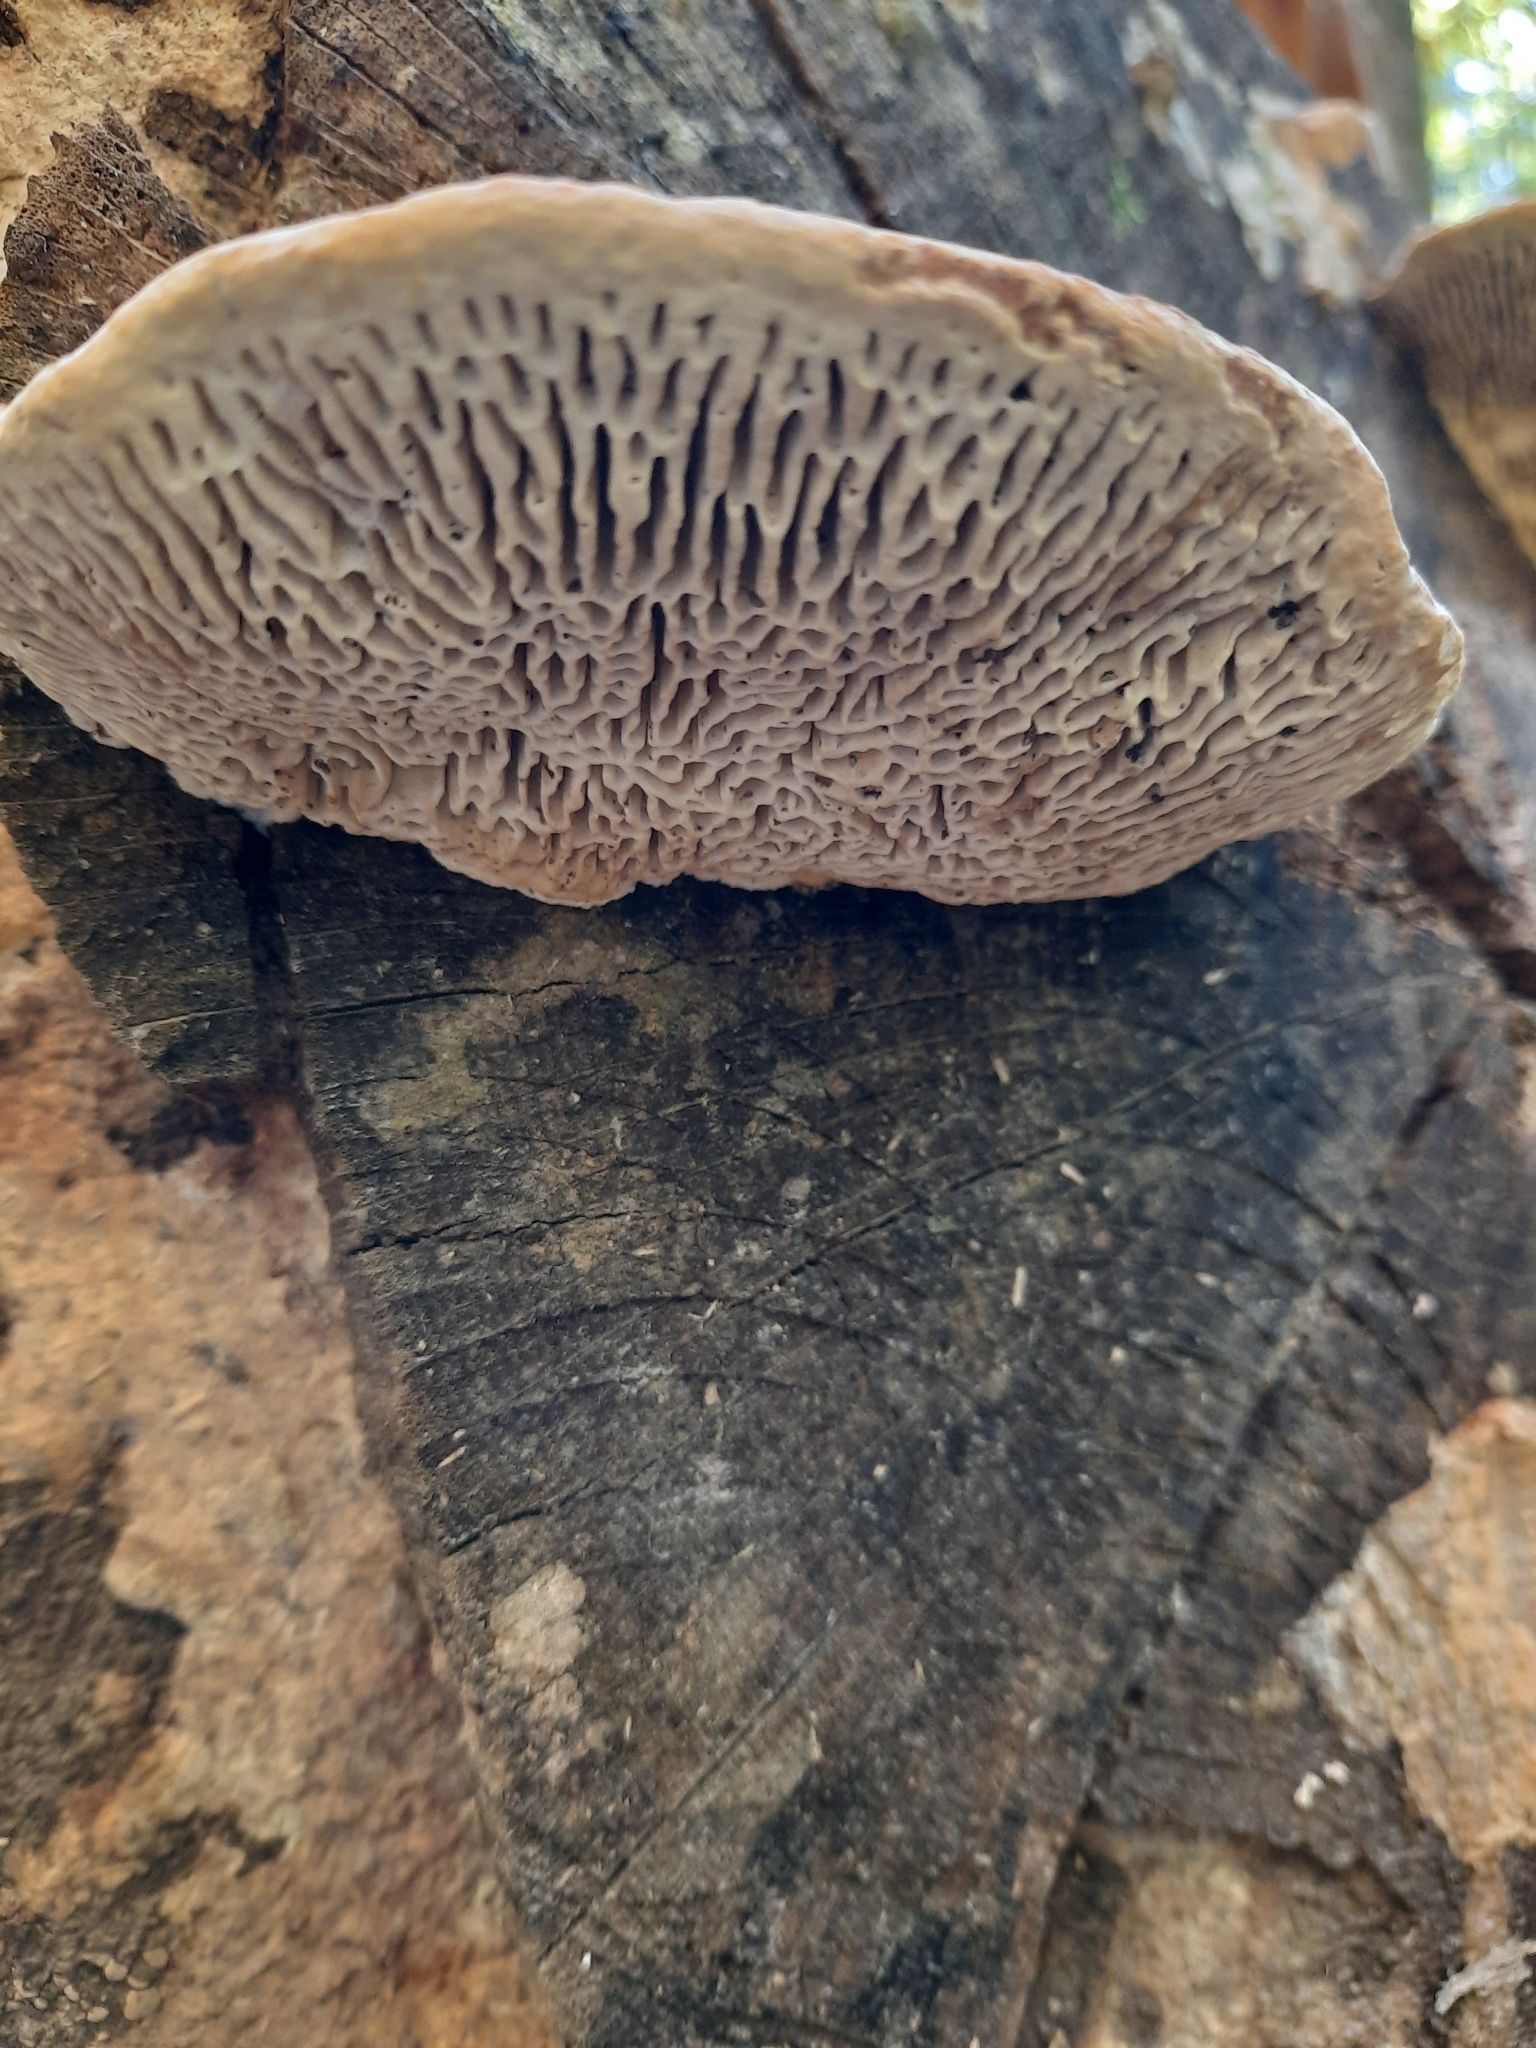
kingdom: Fungi
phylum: Basidiomycota
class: Agaricomycetes
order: Polyporales
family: Fomitopsidaceae
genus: Fomitopsis
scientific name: Fomitopsis
